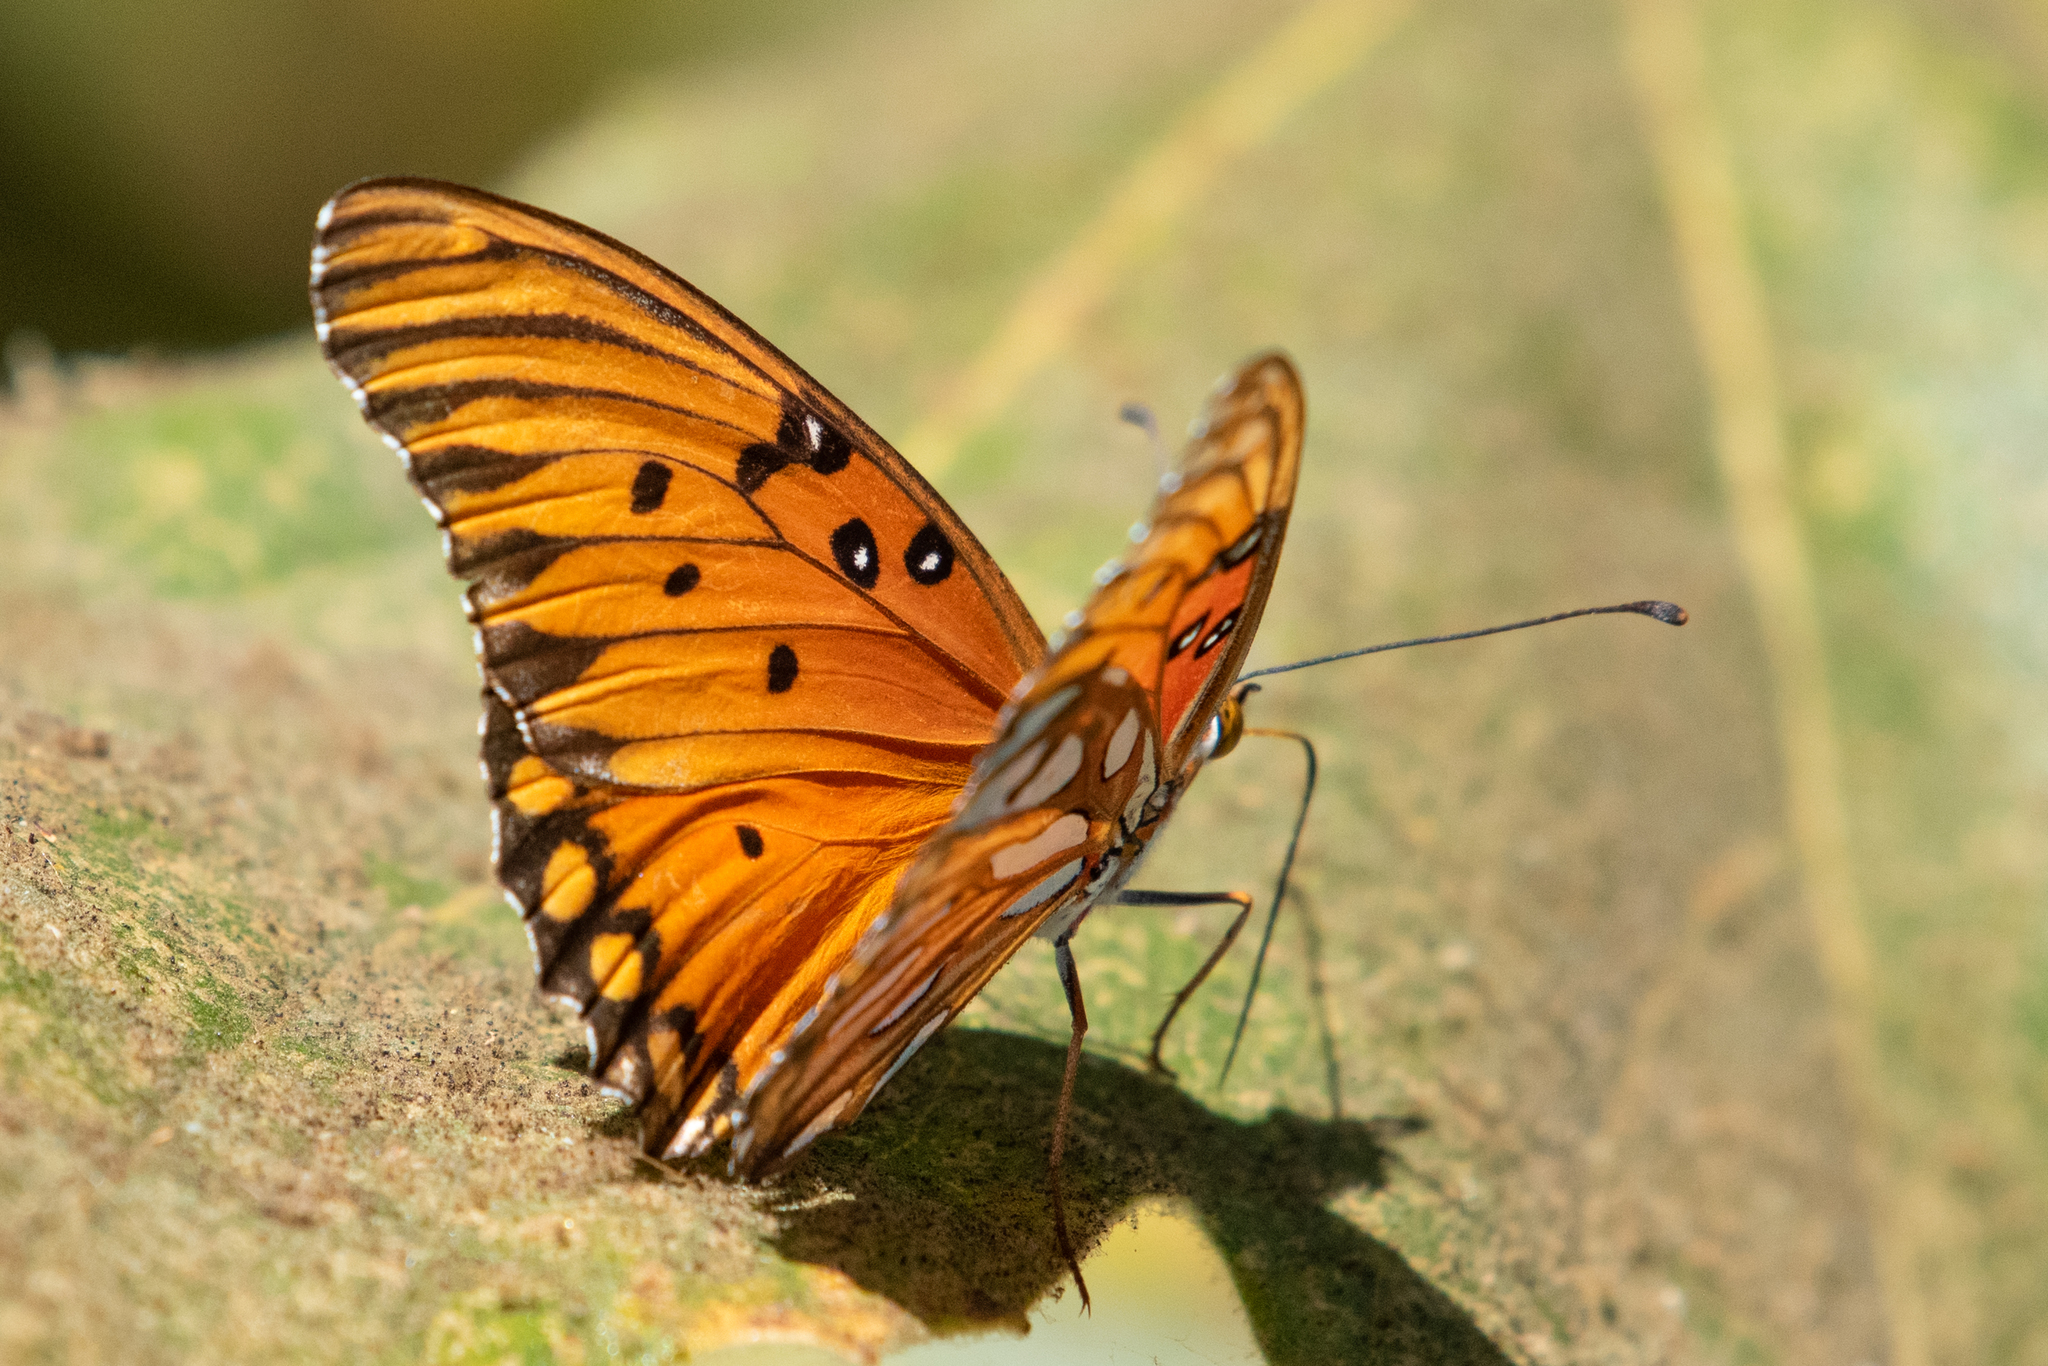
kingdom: Animalia
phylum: Arthropoda
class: Insecta
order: Lepidoptera
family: Nymphalidae
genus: Dione
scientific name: Dione vanillae
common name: Gulf fritillary
